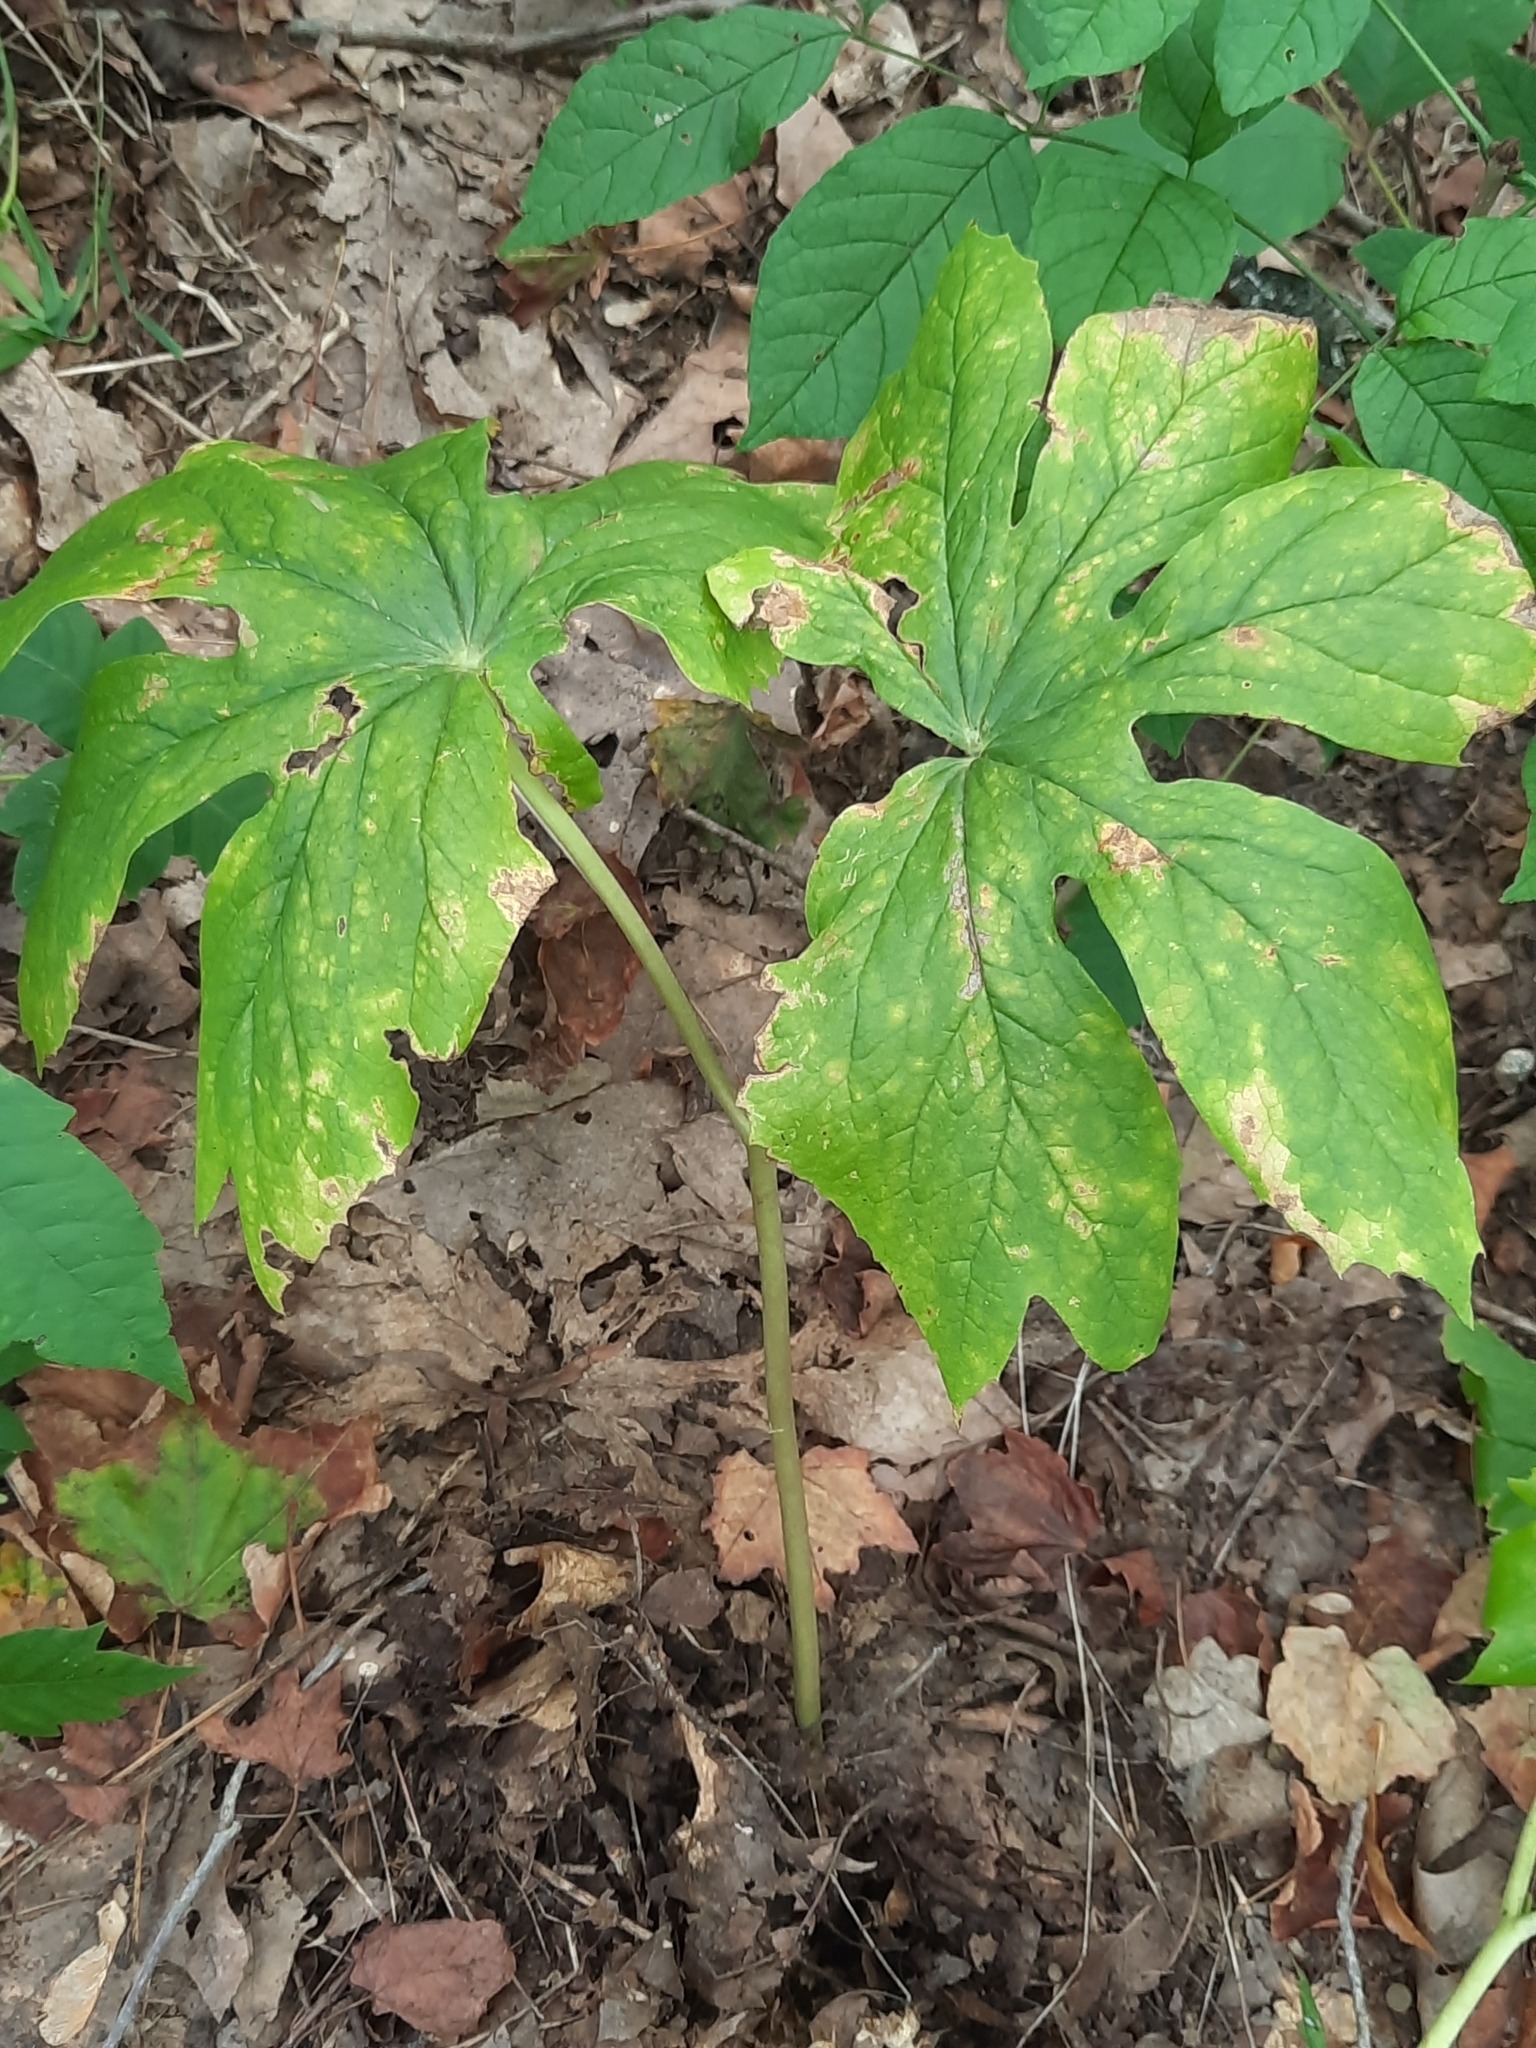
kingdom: Plantae
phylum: Tracheophyta
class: Magnoliopsida
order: Ranunculales
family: Berberidaceae
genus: Podophyllum
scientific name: Podophyllum peltatum
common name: Wild mandrake
